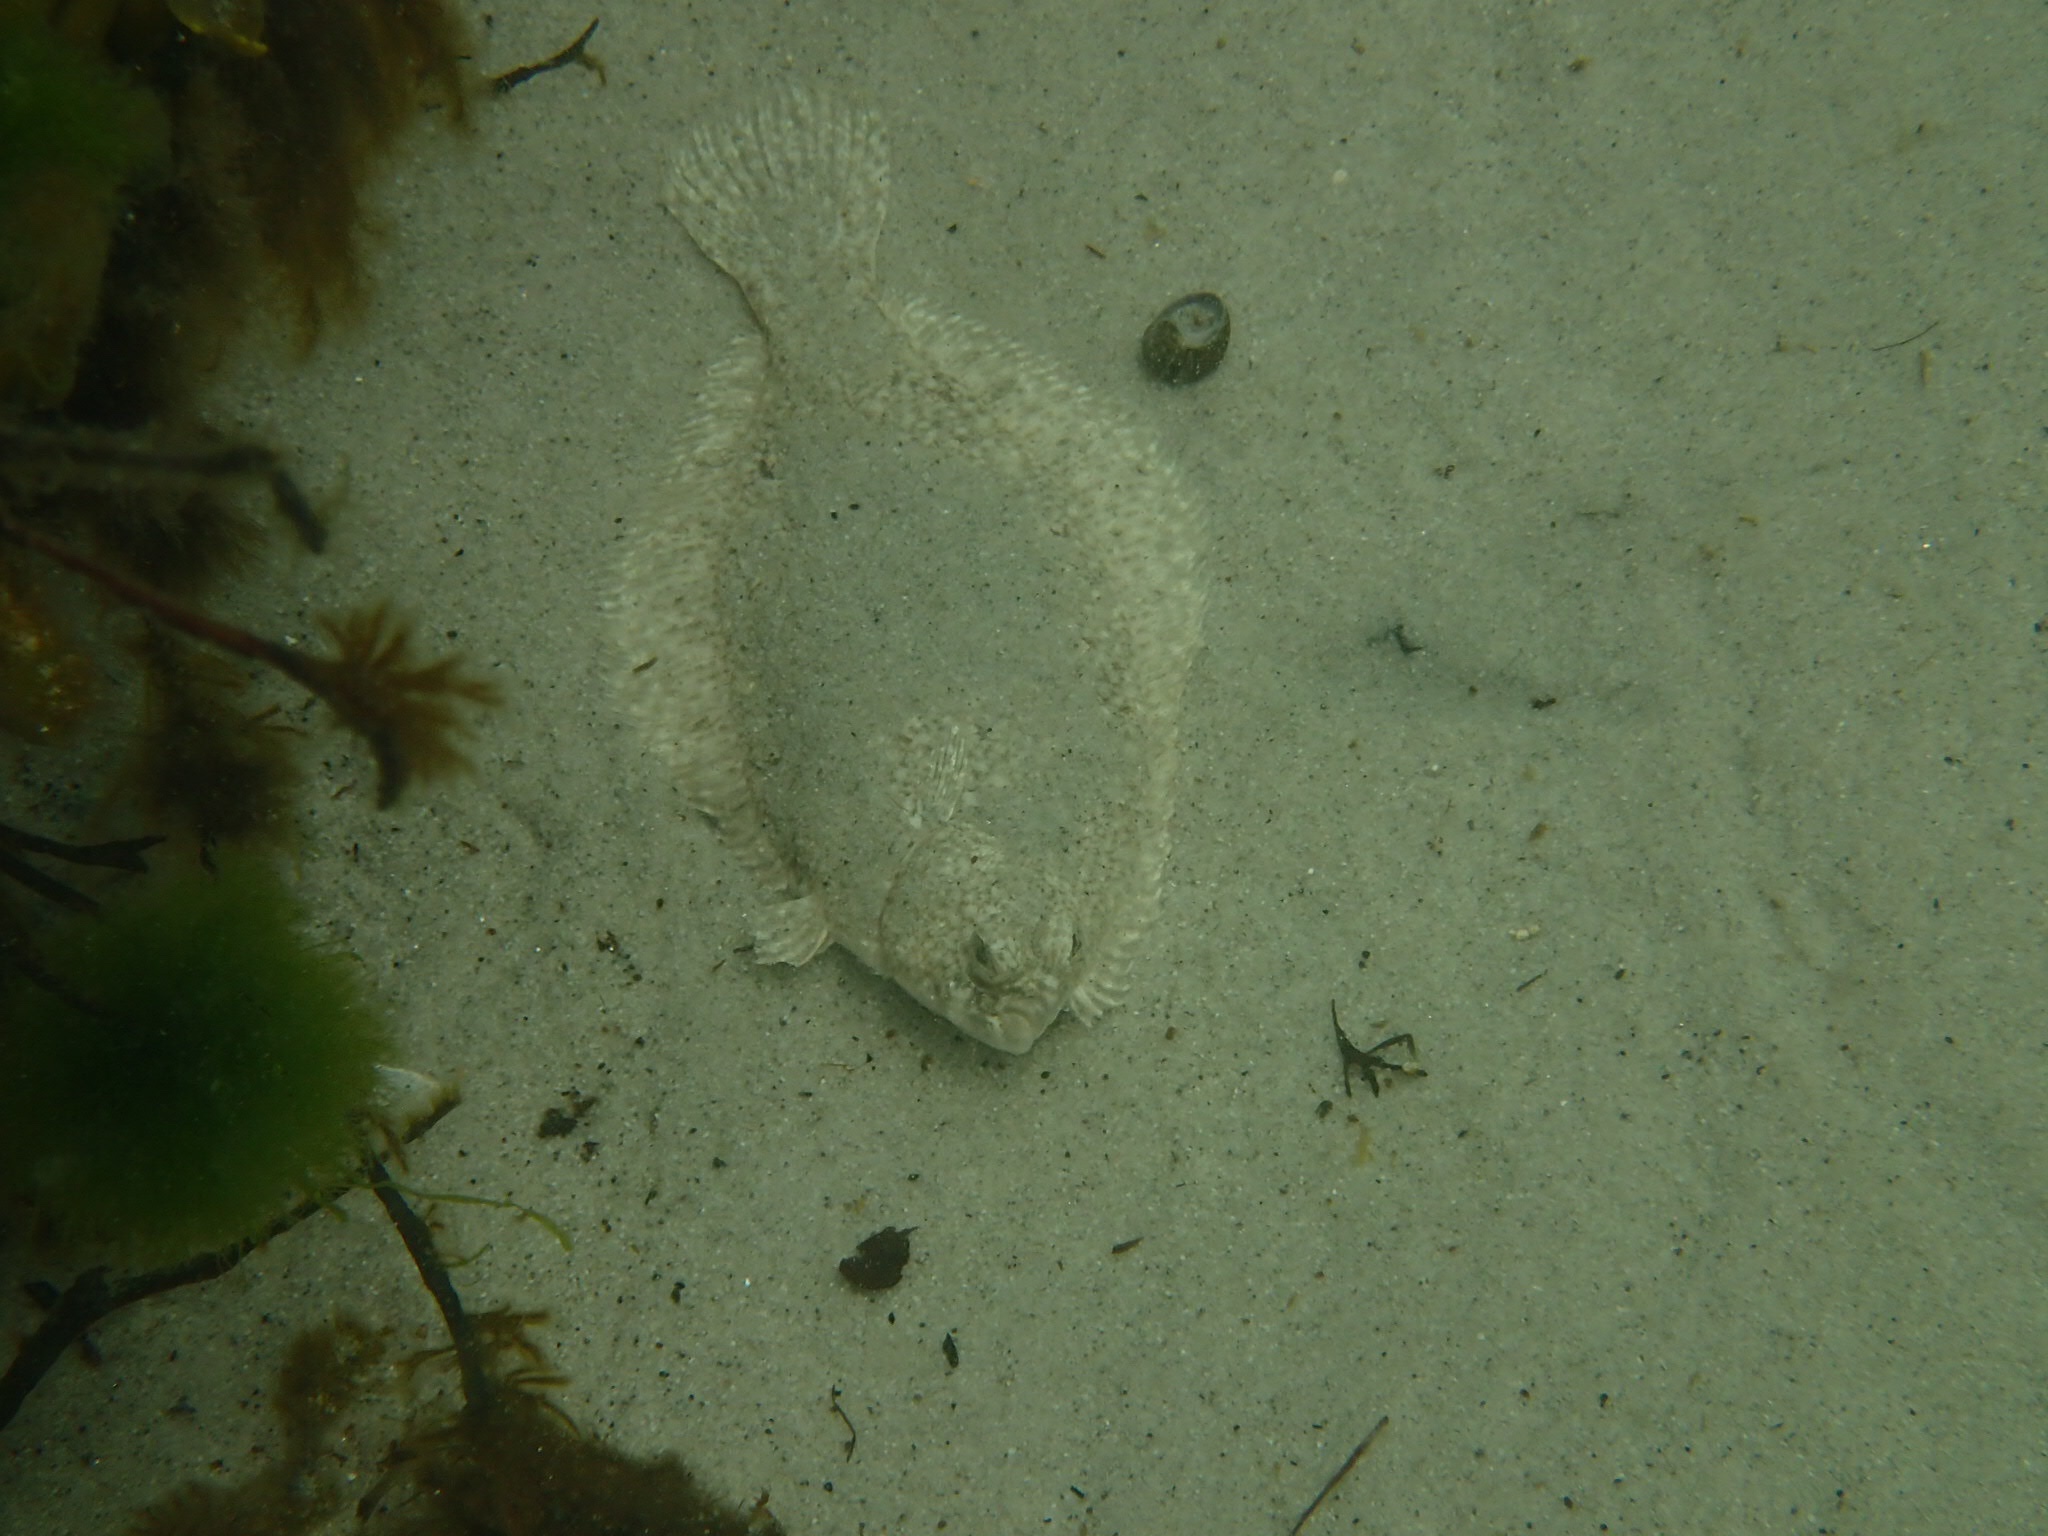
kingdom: Animalia
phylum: Chordata
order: Pleuronectiformes
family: Pleuronectidae
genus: Pseudopleuronectes
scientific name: Pseudopleuronectes americanus
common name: Black backs
